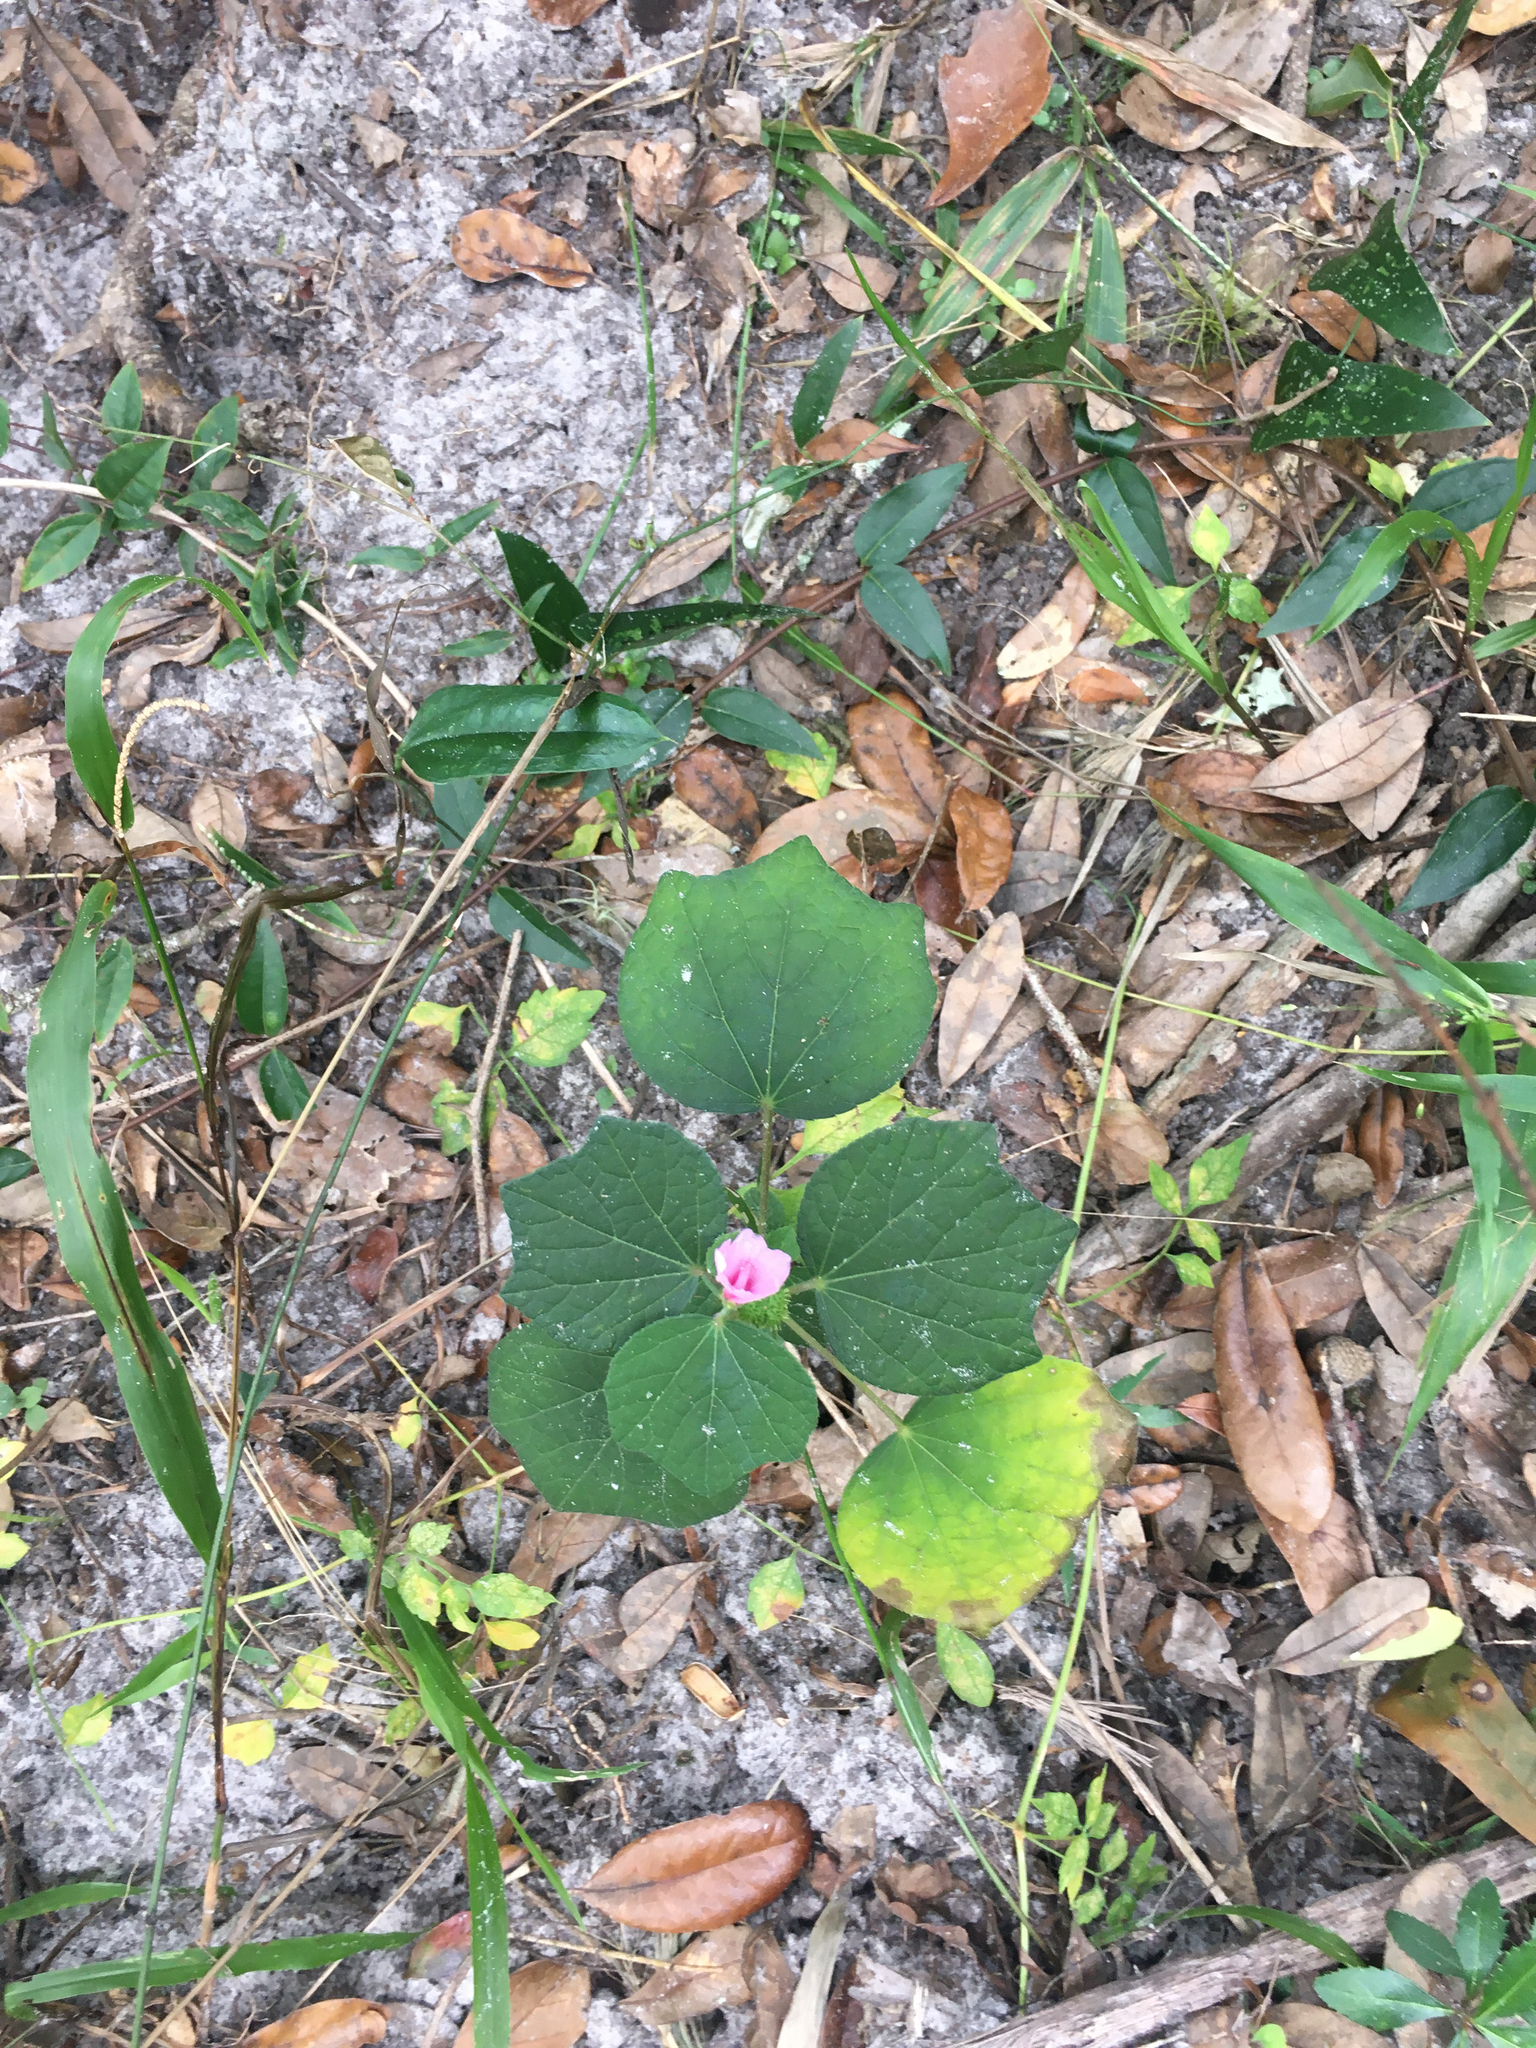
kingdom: Plantae
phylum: Tracheophyta
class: Magnoliopsida
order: Malvales
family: Malvaceae
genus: Urena
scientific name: Urena lobata
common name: Caesarweed
